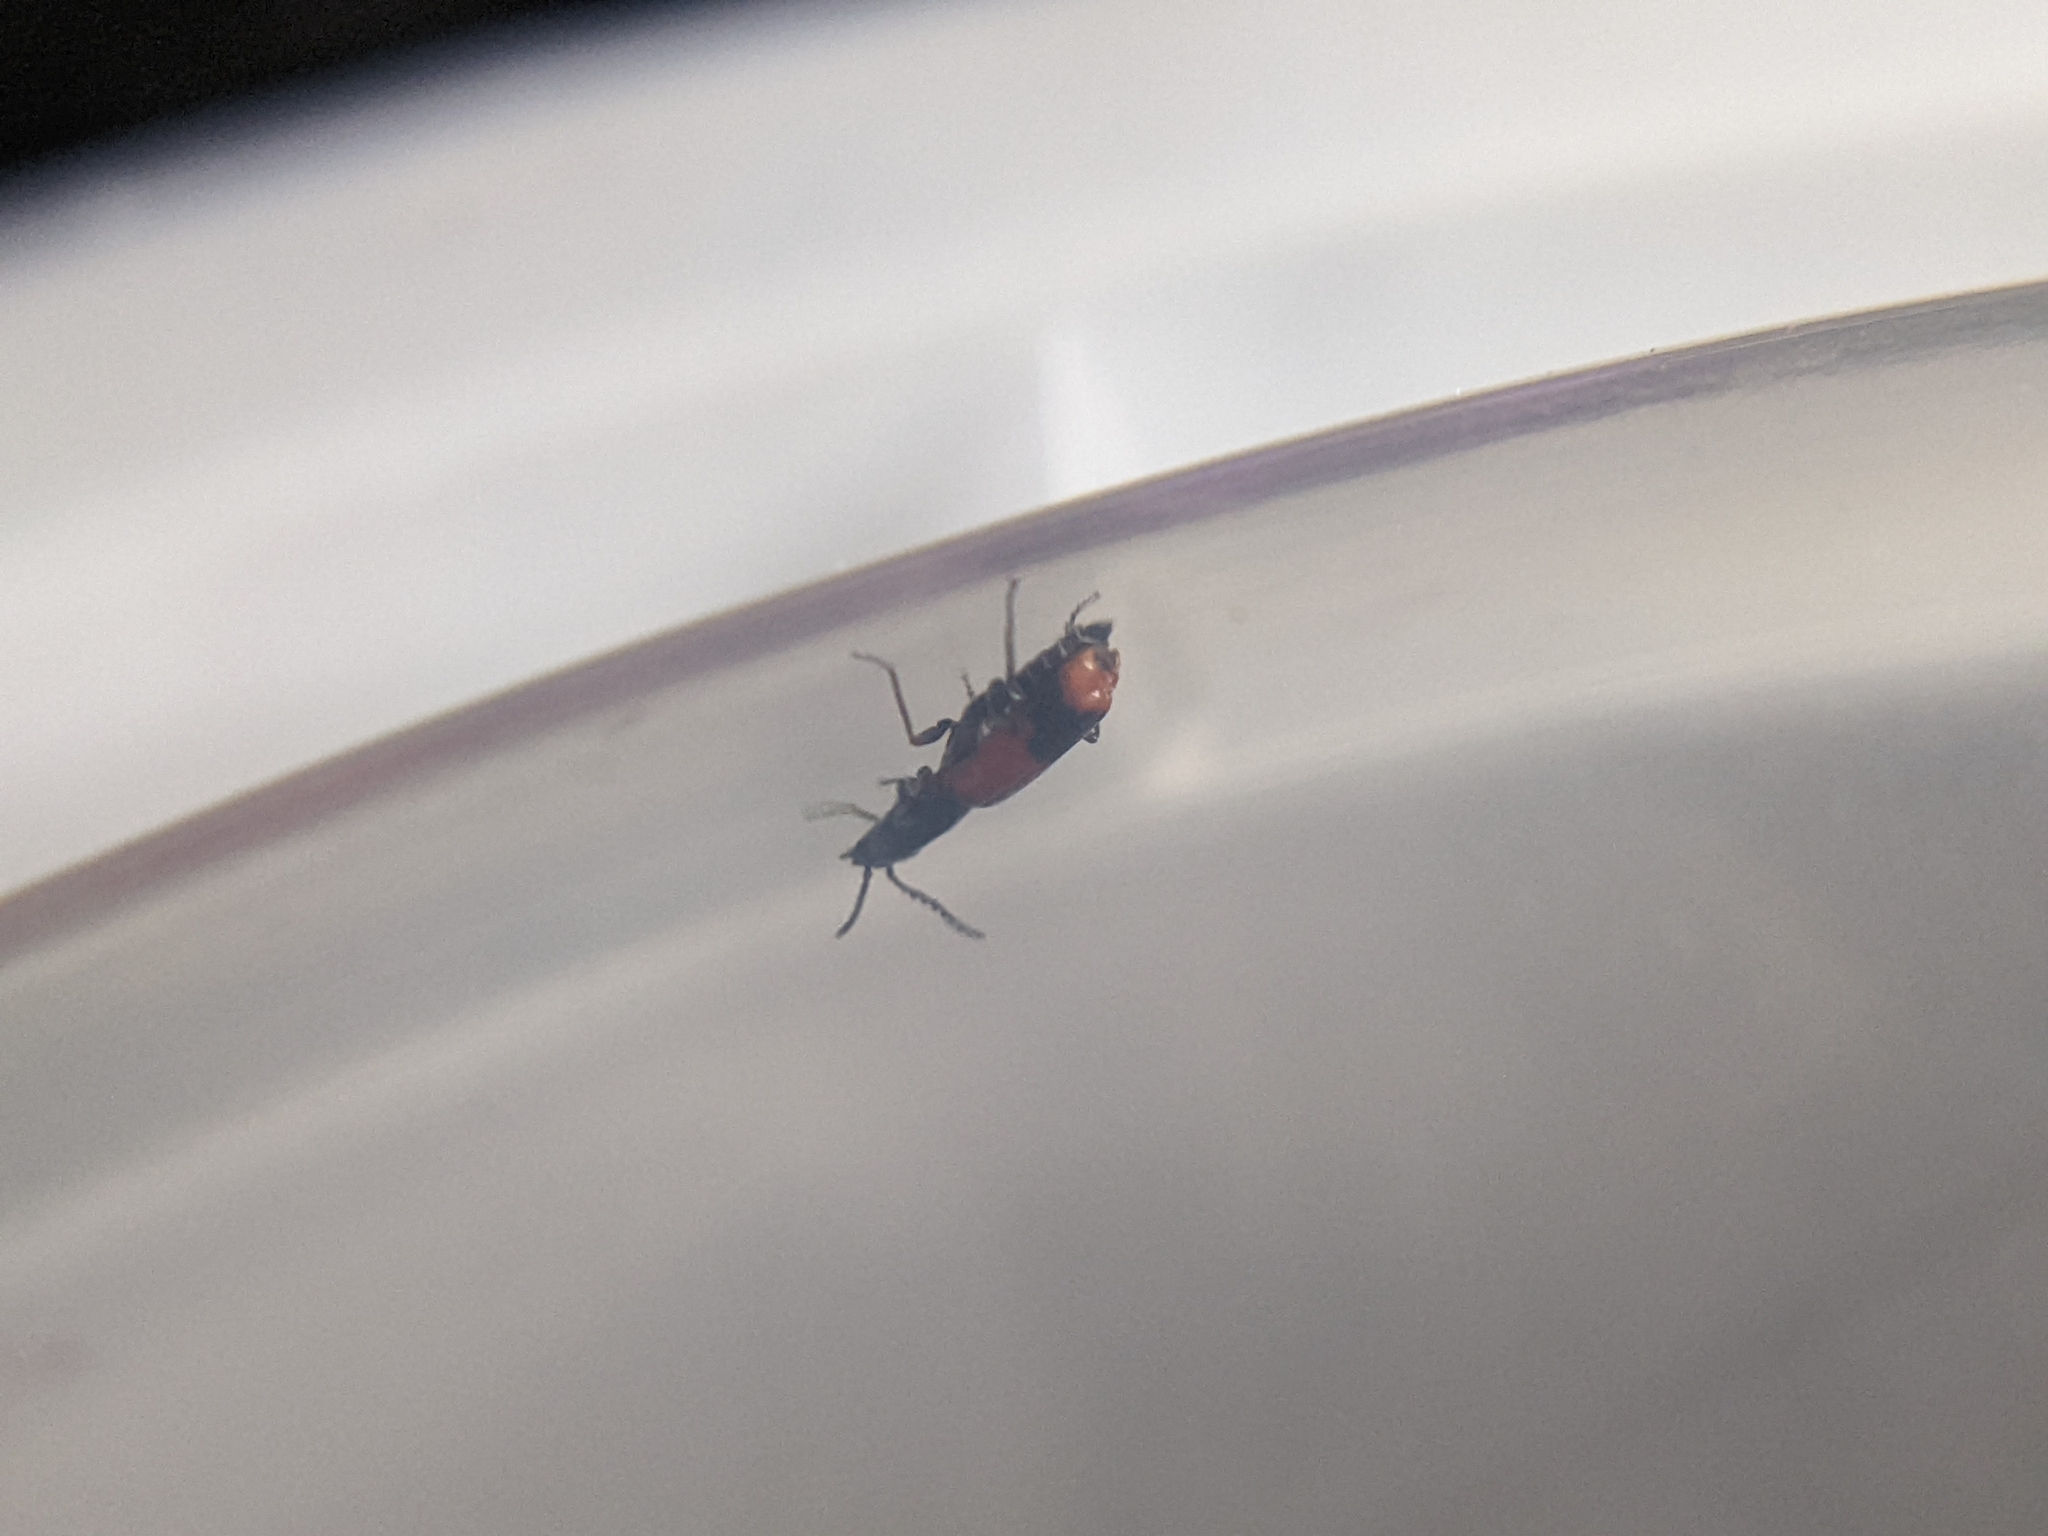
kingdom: Animalia
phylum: Arthropoda
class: Insecta
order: Coleoptera
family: Melyridae
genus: Anthocomus
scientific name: Anthocomus equestris
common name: Black-banded soft-winged flower beetle
